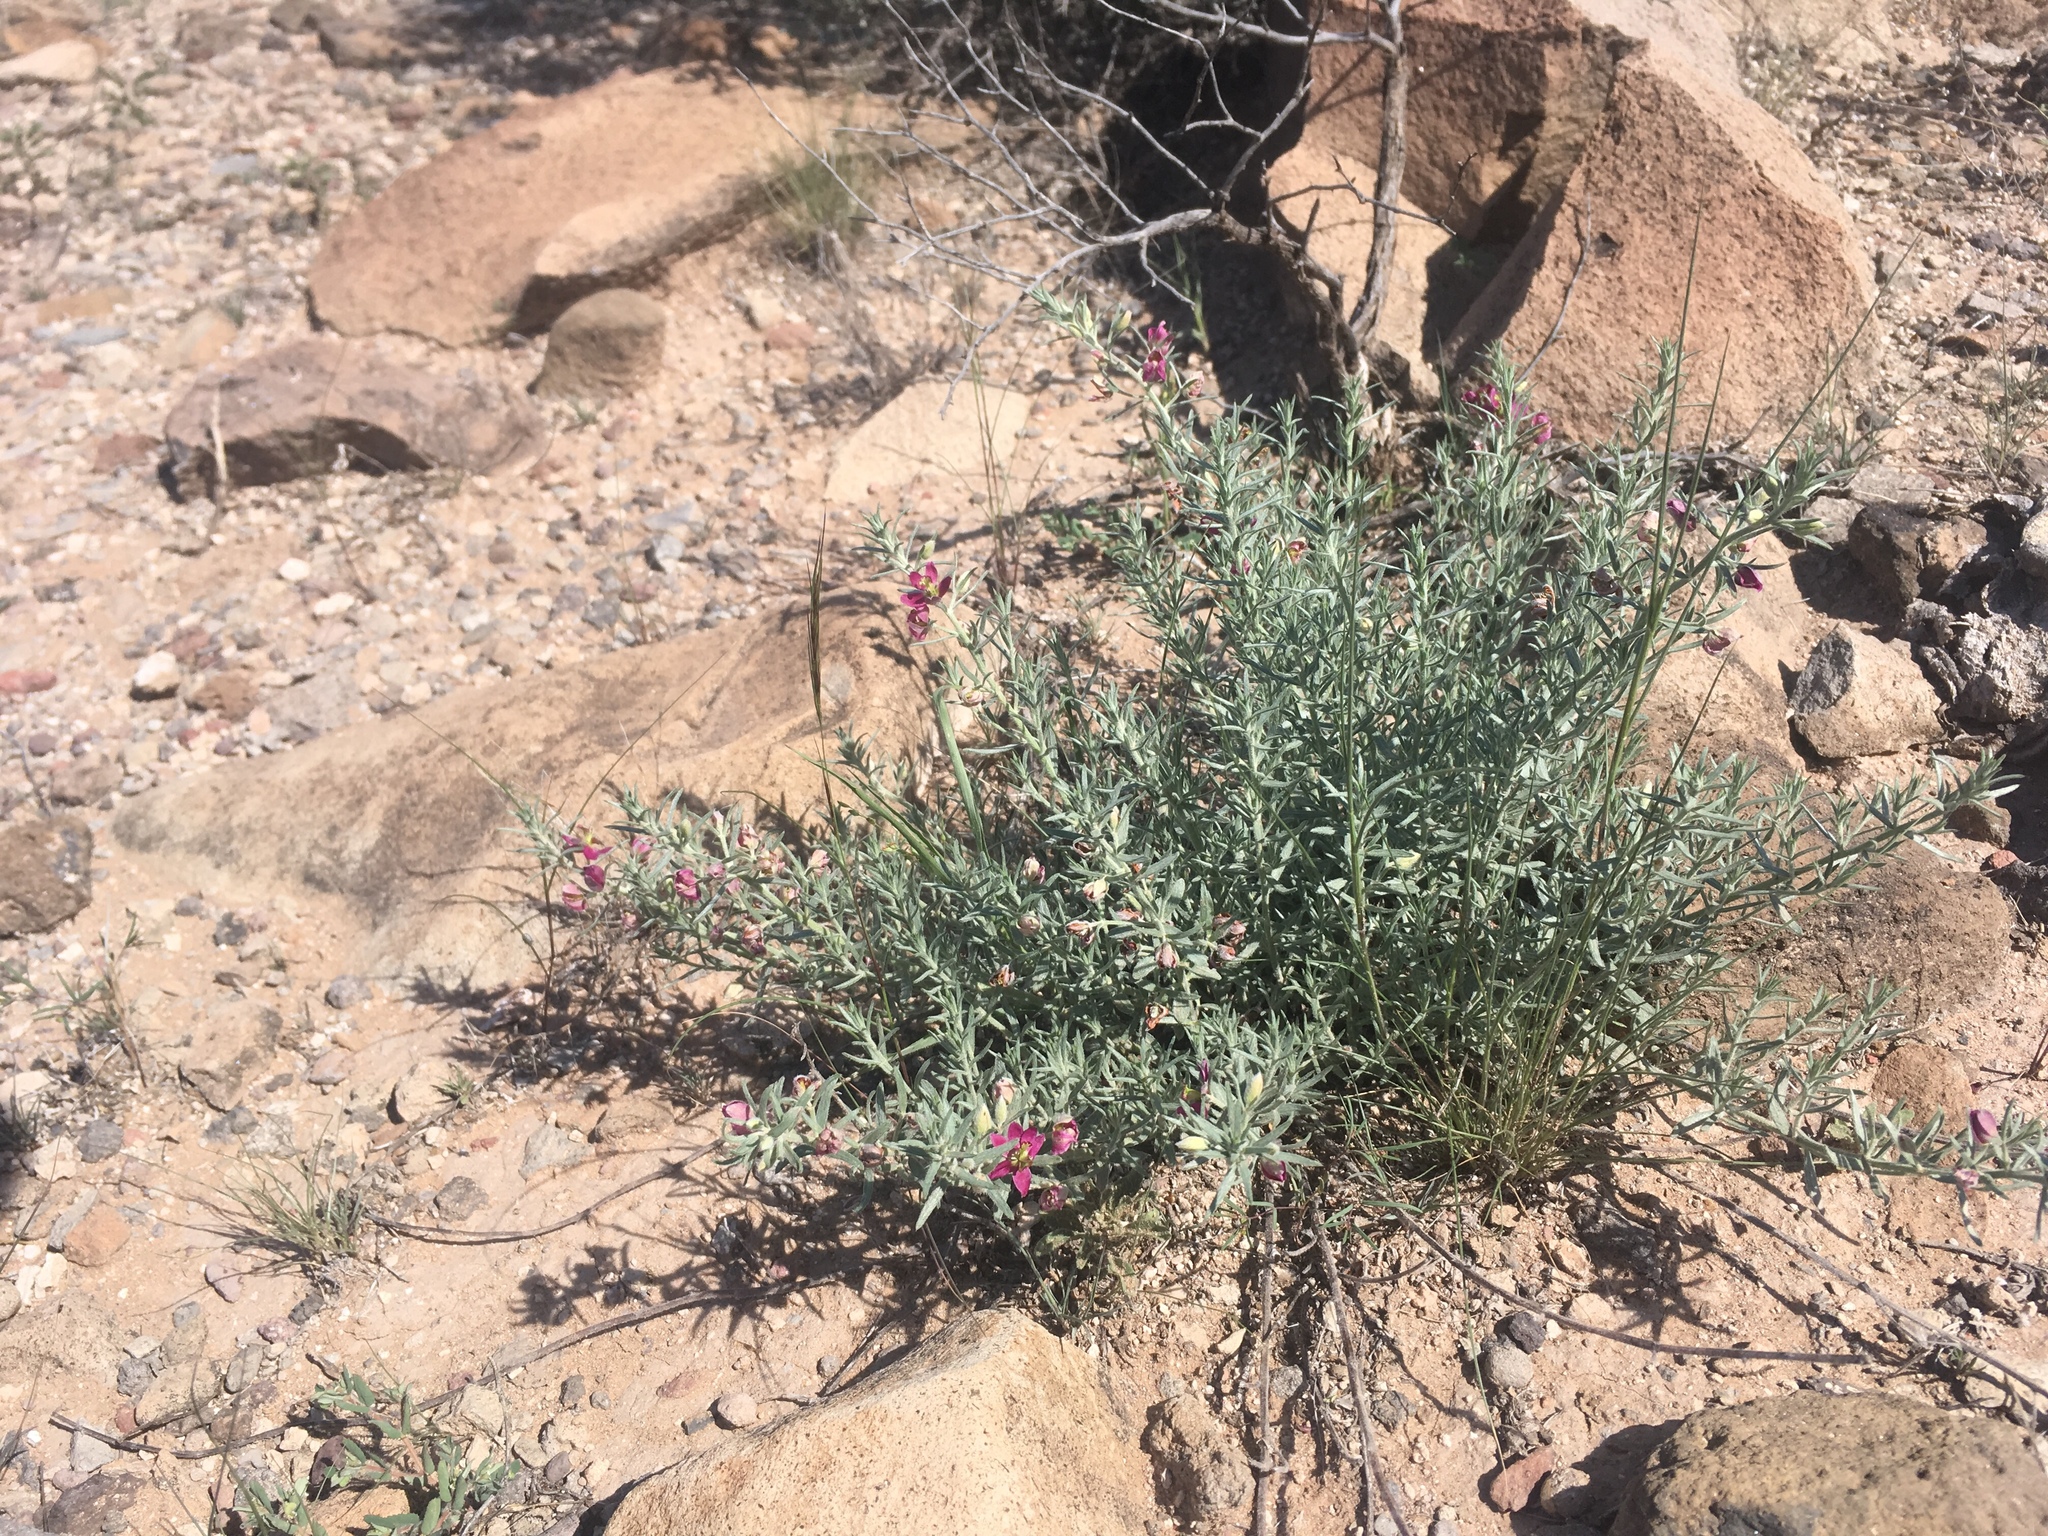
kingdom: Plantae
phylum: Tracheophyta
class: Magnoliopsida
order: Zygophyllales
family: Krameriaceae
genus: Krameria
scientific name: Krameria lanceolata
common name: Ratany
